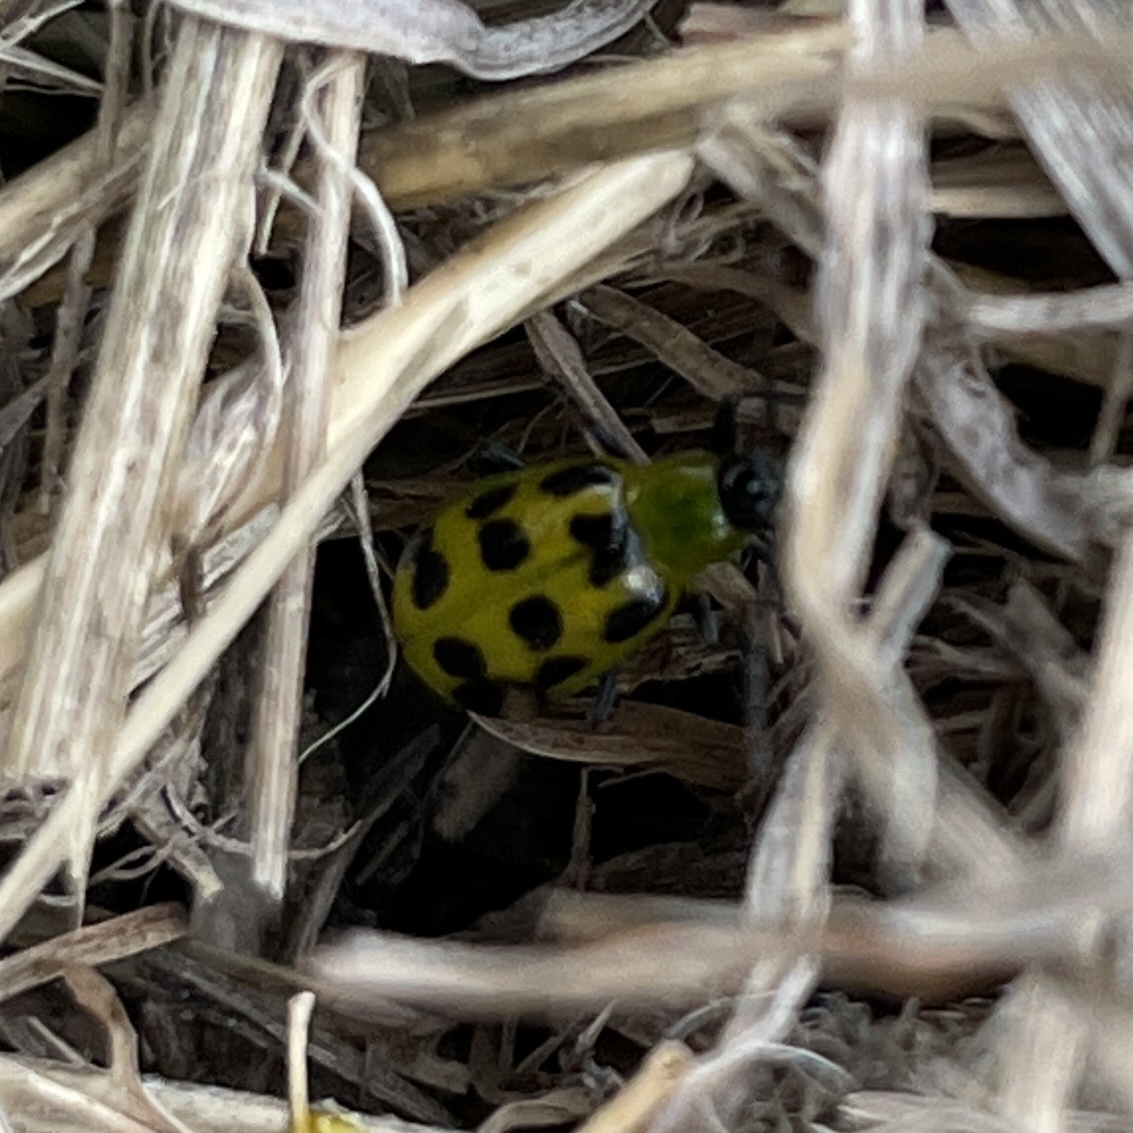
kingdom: Animalia
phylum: Arthropoda
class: Insecta
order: Coleoptera
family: Chrysomelidae
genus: Diabrotica
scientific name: Diabrotica undecimpunctata
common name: Spotted cucumber beetle
